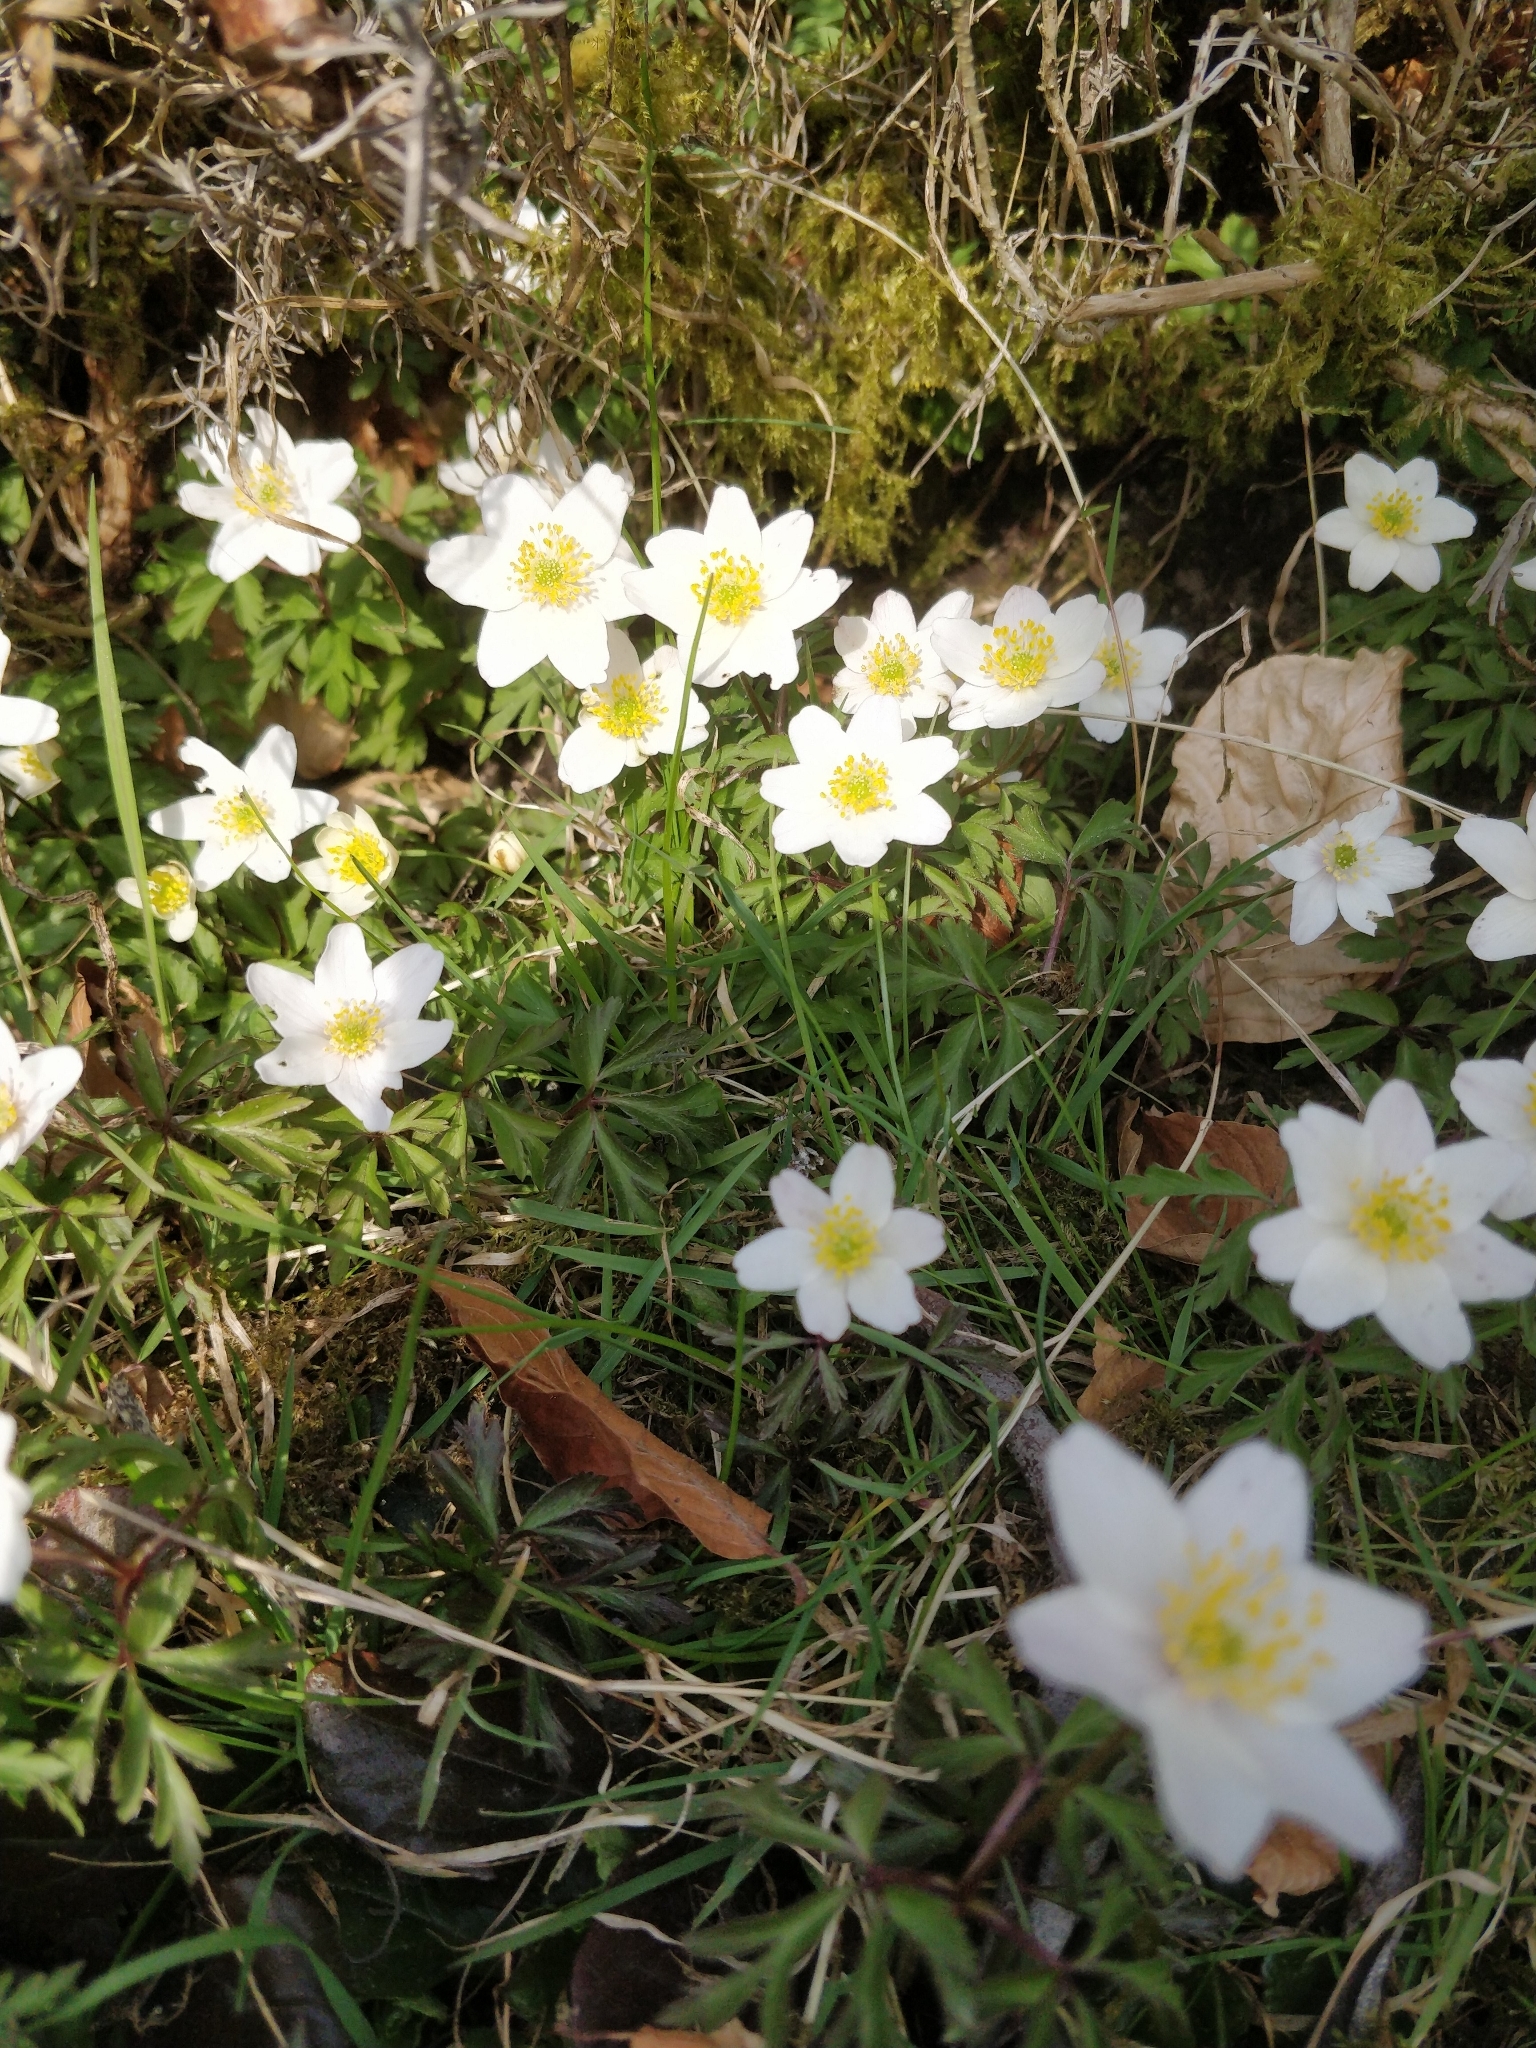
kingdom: Plantae
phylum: Tracheophyta
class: Magnoliopsida
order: Ranunculales
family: Ranunculaceae
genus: Anemone
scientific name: Anemone nemorosa
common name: Wood anemone
